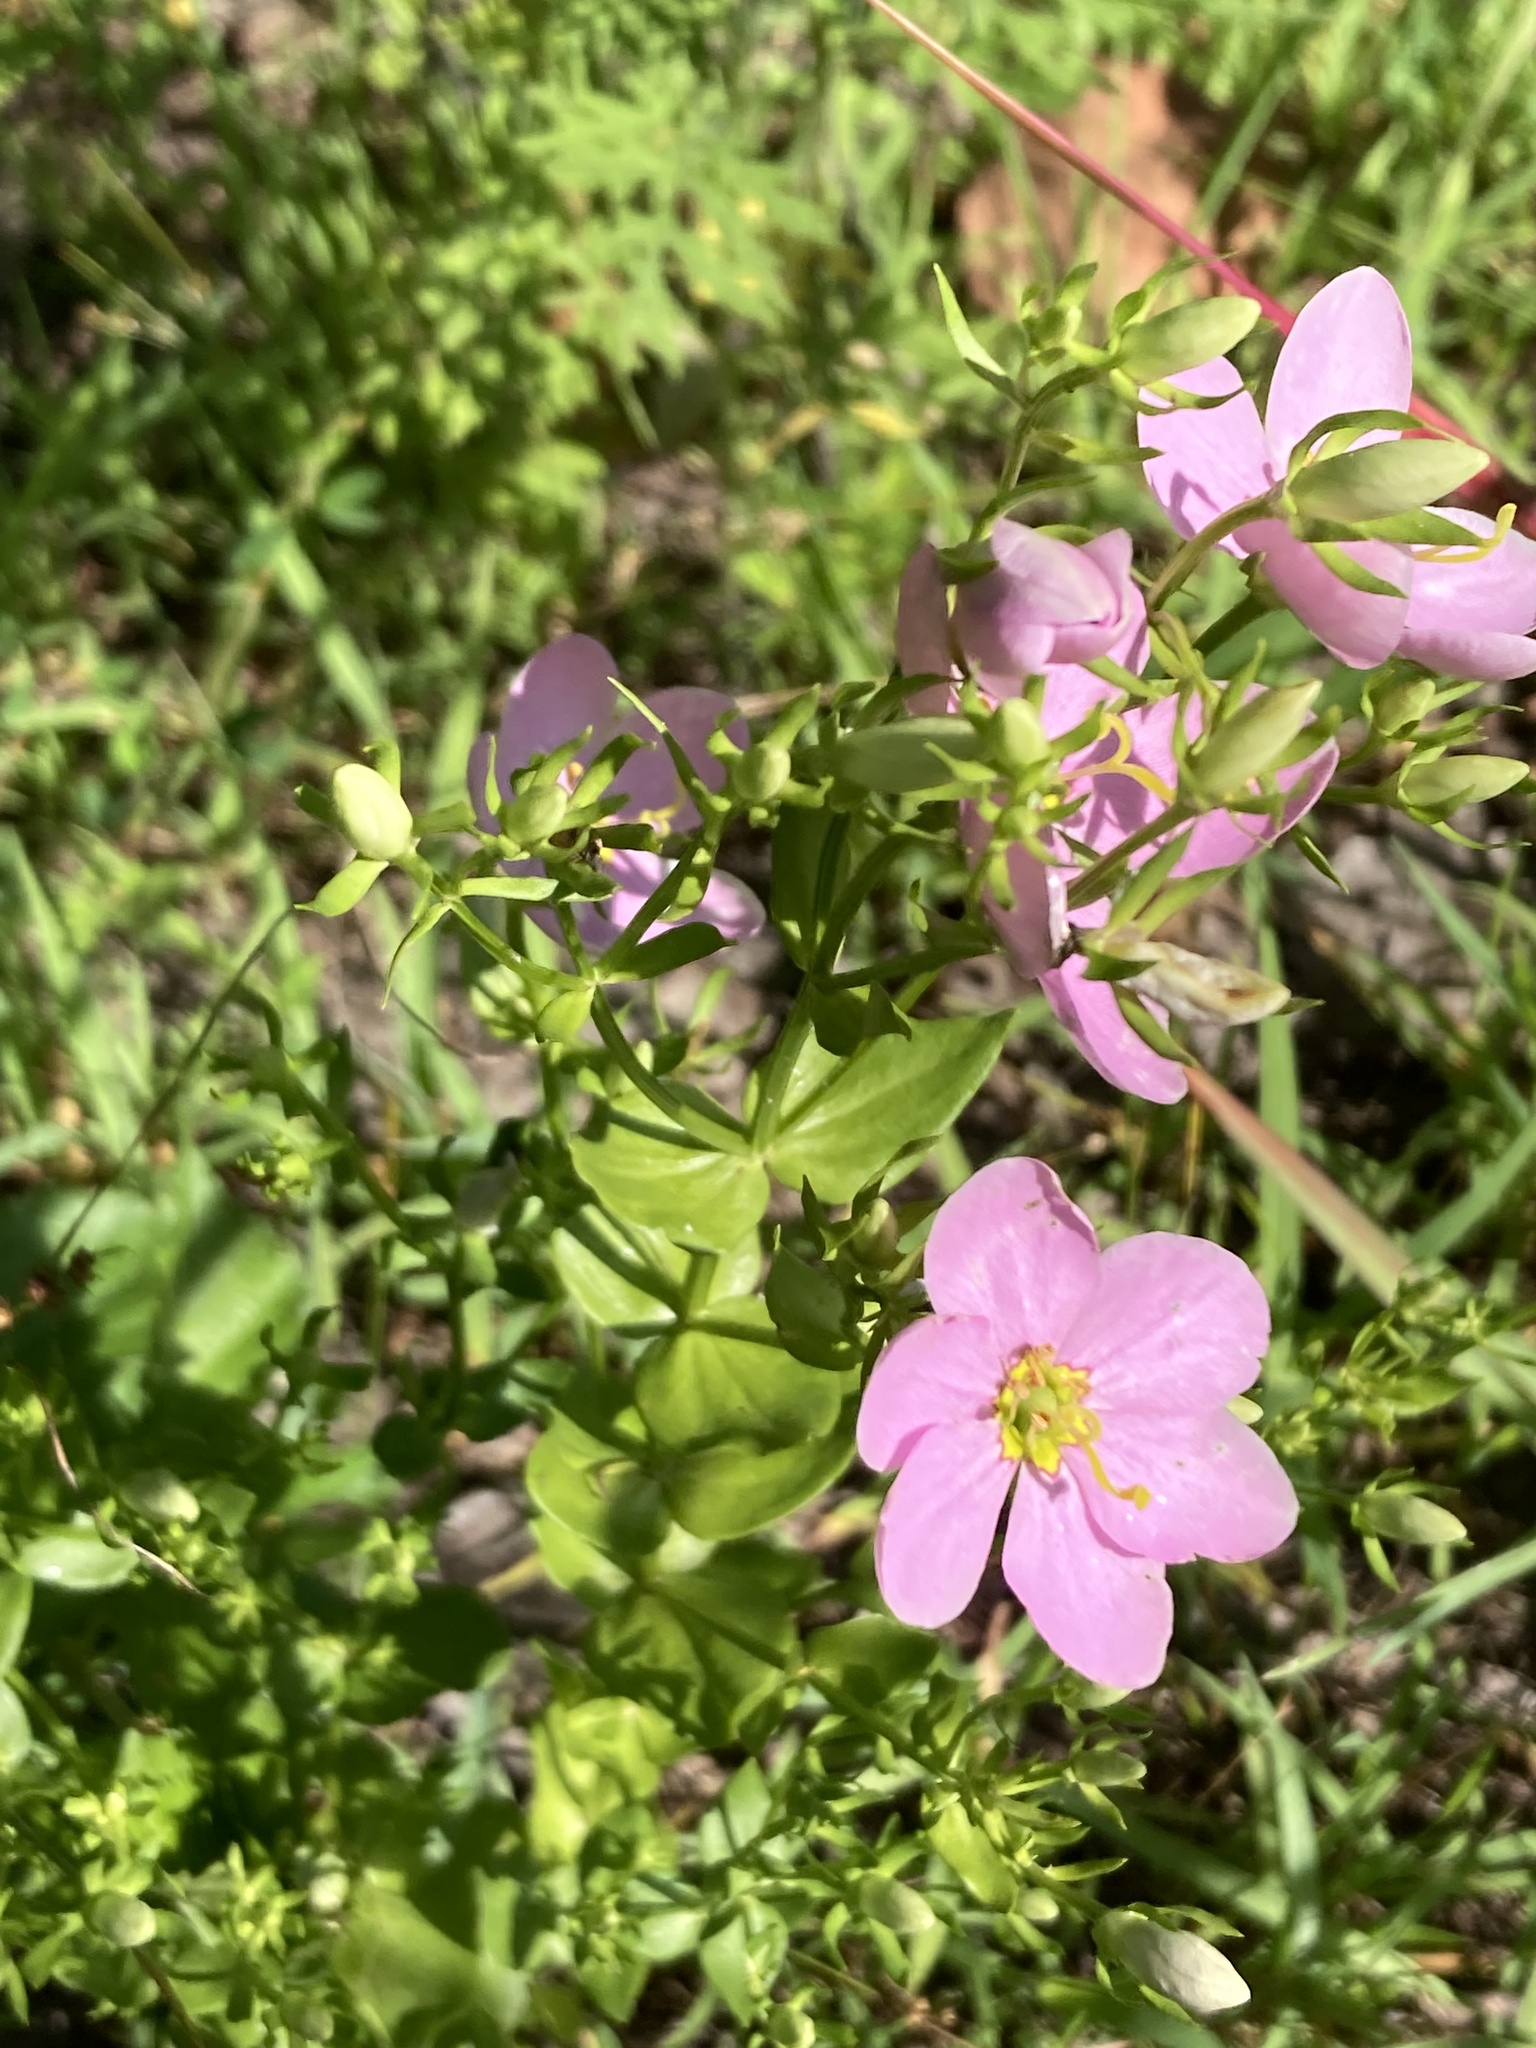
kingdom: Plantae
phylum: Tracheophyta
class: Magnoliopsida
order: Gentianales
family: Gentianaceae
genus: Sabatia
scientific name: Sabatia angularis
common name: Rose-pink
